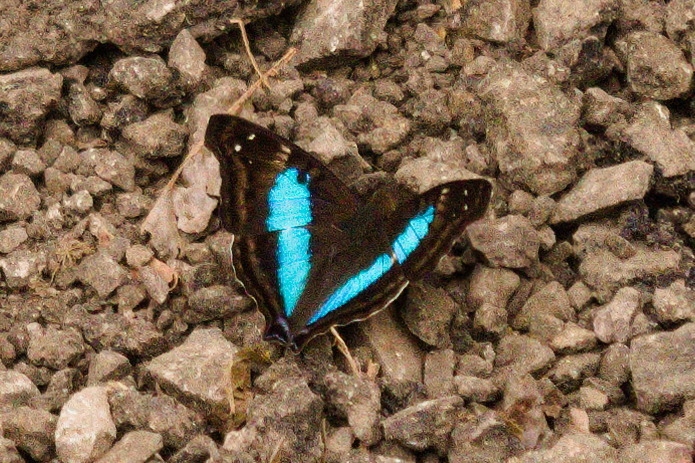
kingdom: Animalia
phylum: Arthropoda
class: Insecta
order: Lepidoptera
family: Nymphalidae
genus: Doxocopa
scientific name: Doxocopa laurentia
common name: Turquoise emperor
